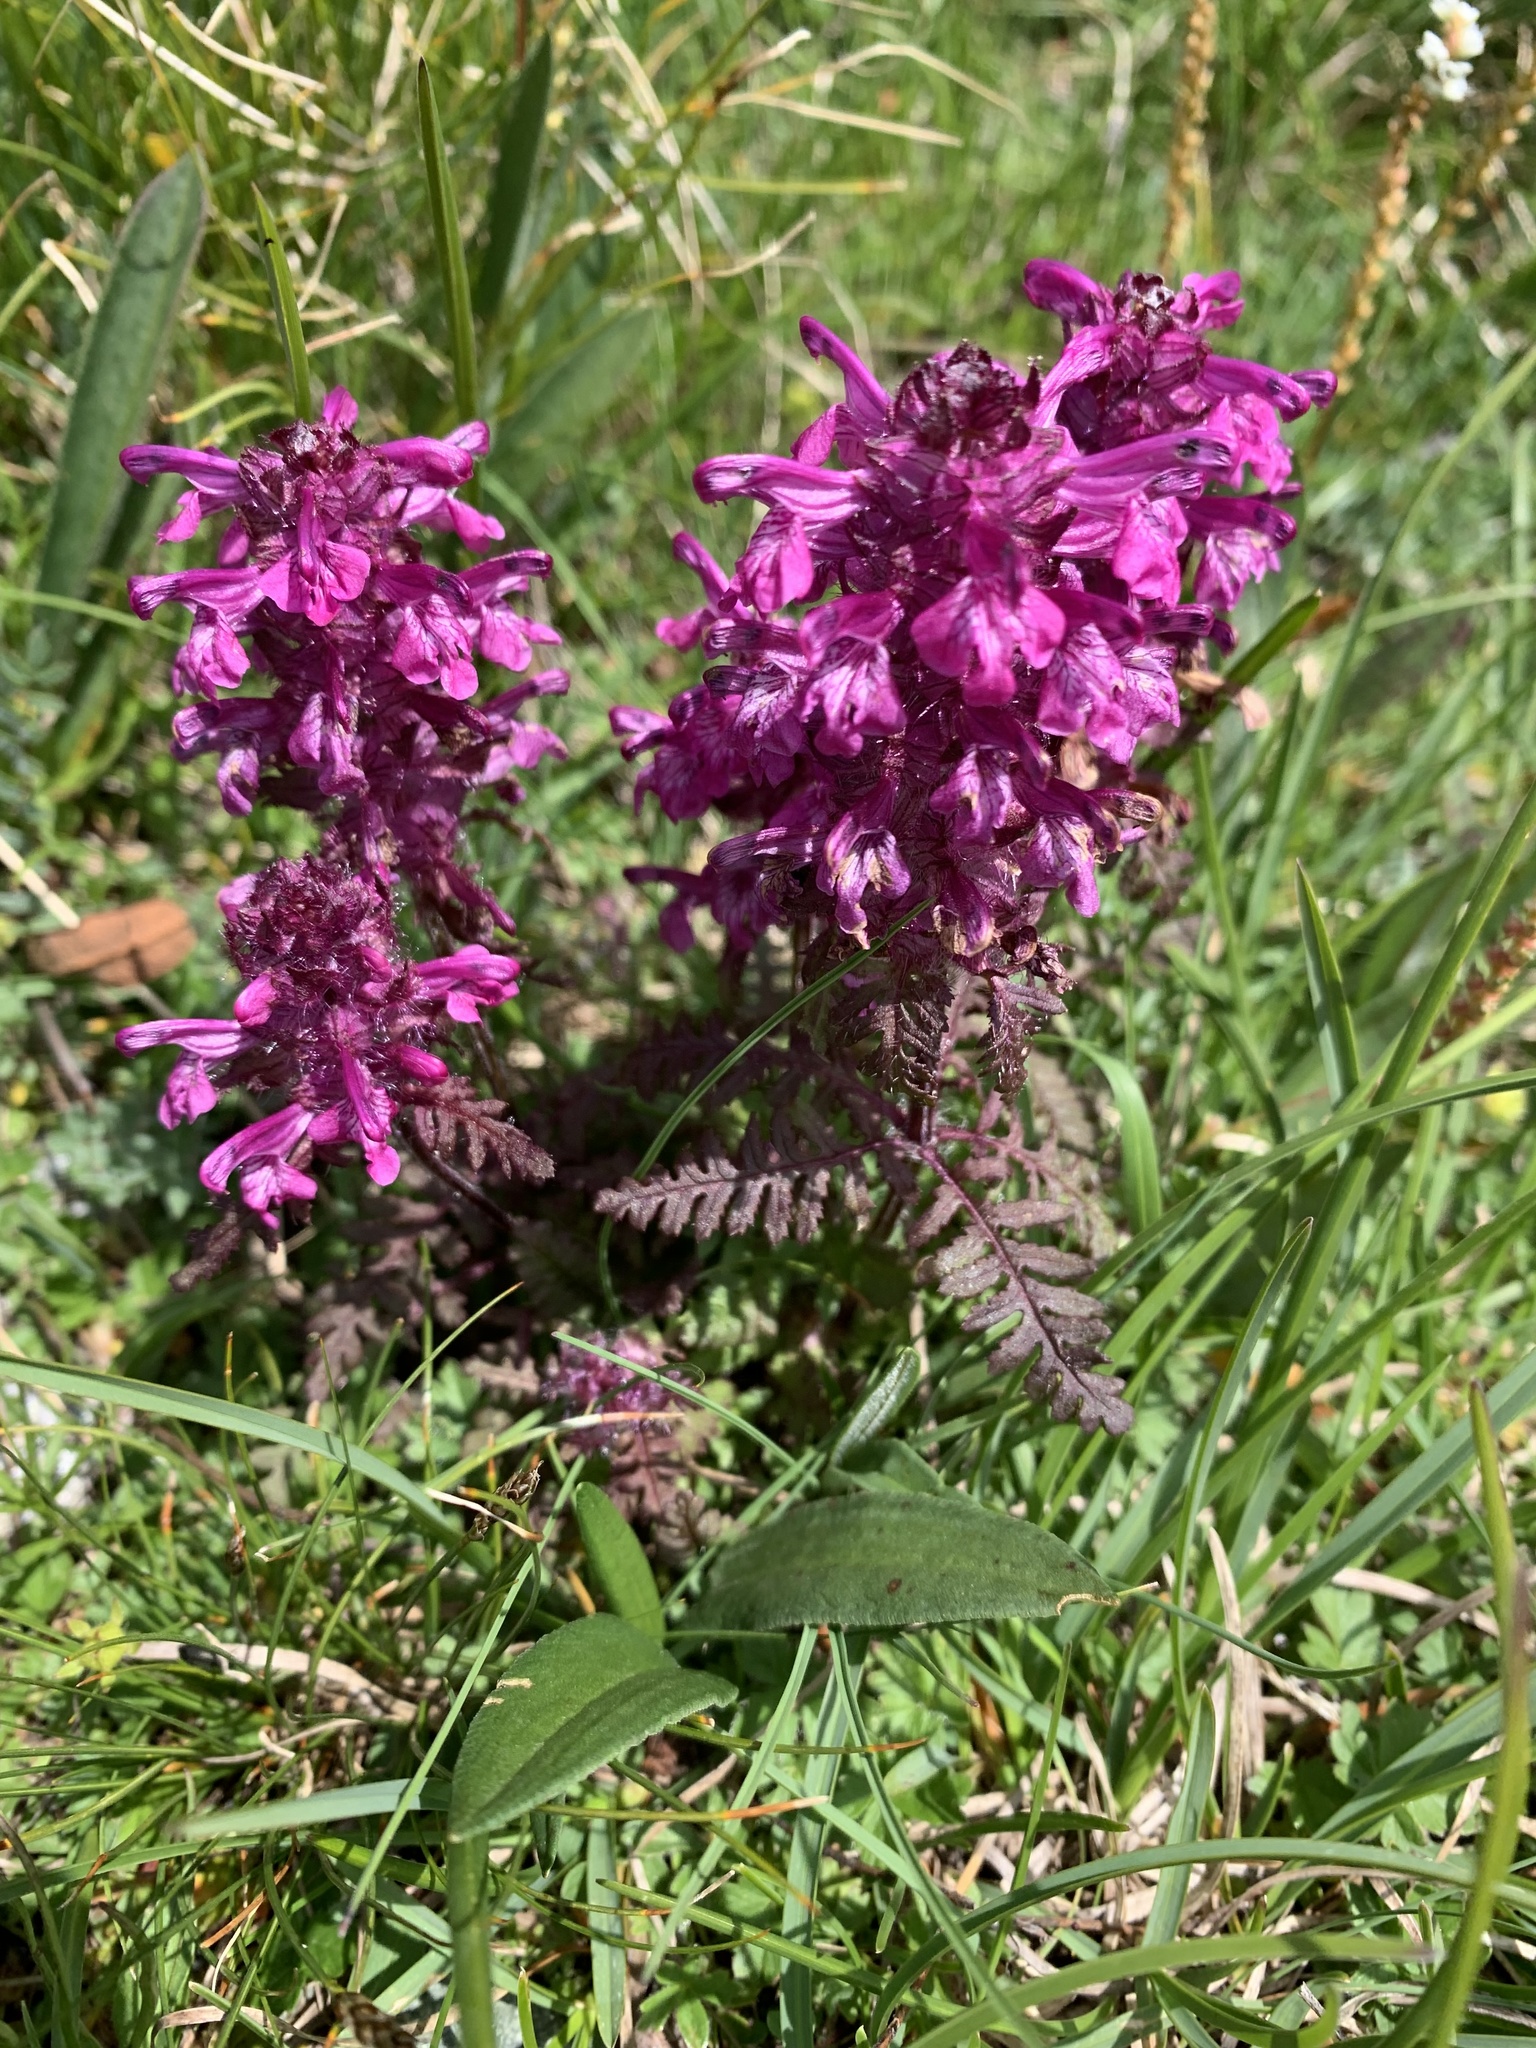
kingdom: Plantae
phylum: Tracheophyta
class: Magnoliopsida
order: Lamiales
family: Orobanchaceae
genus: Pedicularis
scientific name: Pedicularis verticillata
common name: Whorled lousewort
